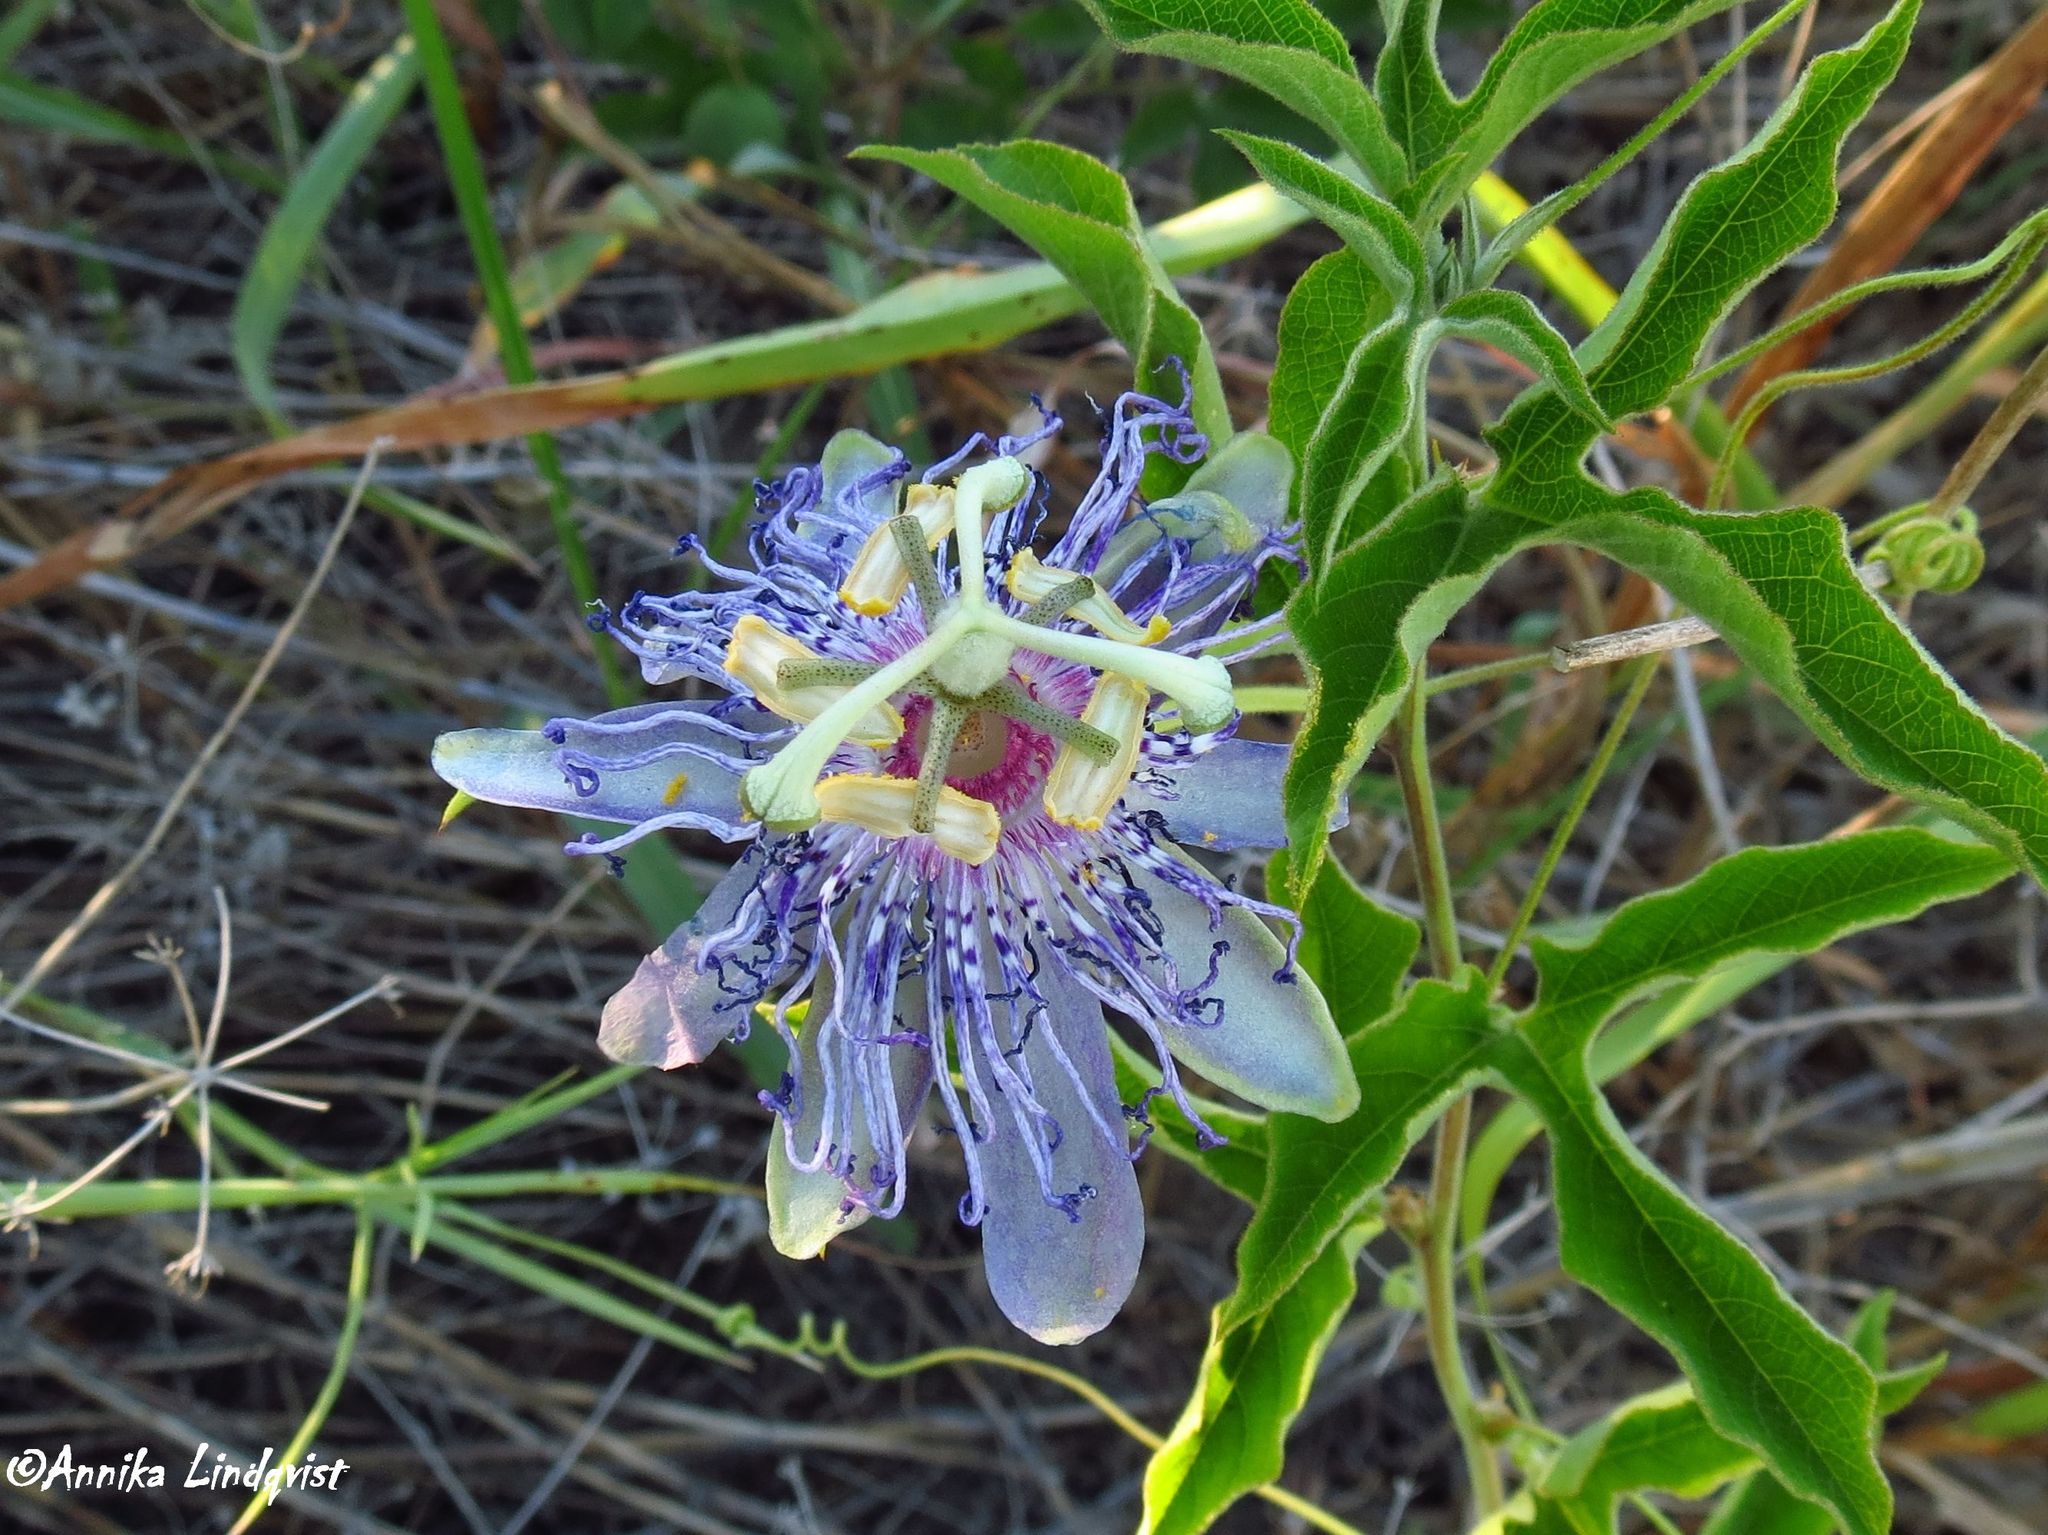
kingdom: Plantae
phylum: Tracheophyta
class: Magnoliopsida
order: Malpighiales
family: Passifloraceae
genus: Passiflora
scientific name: Passiflora incarnata
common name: Apricot-vine
